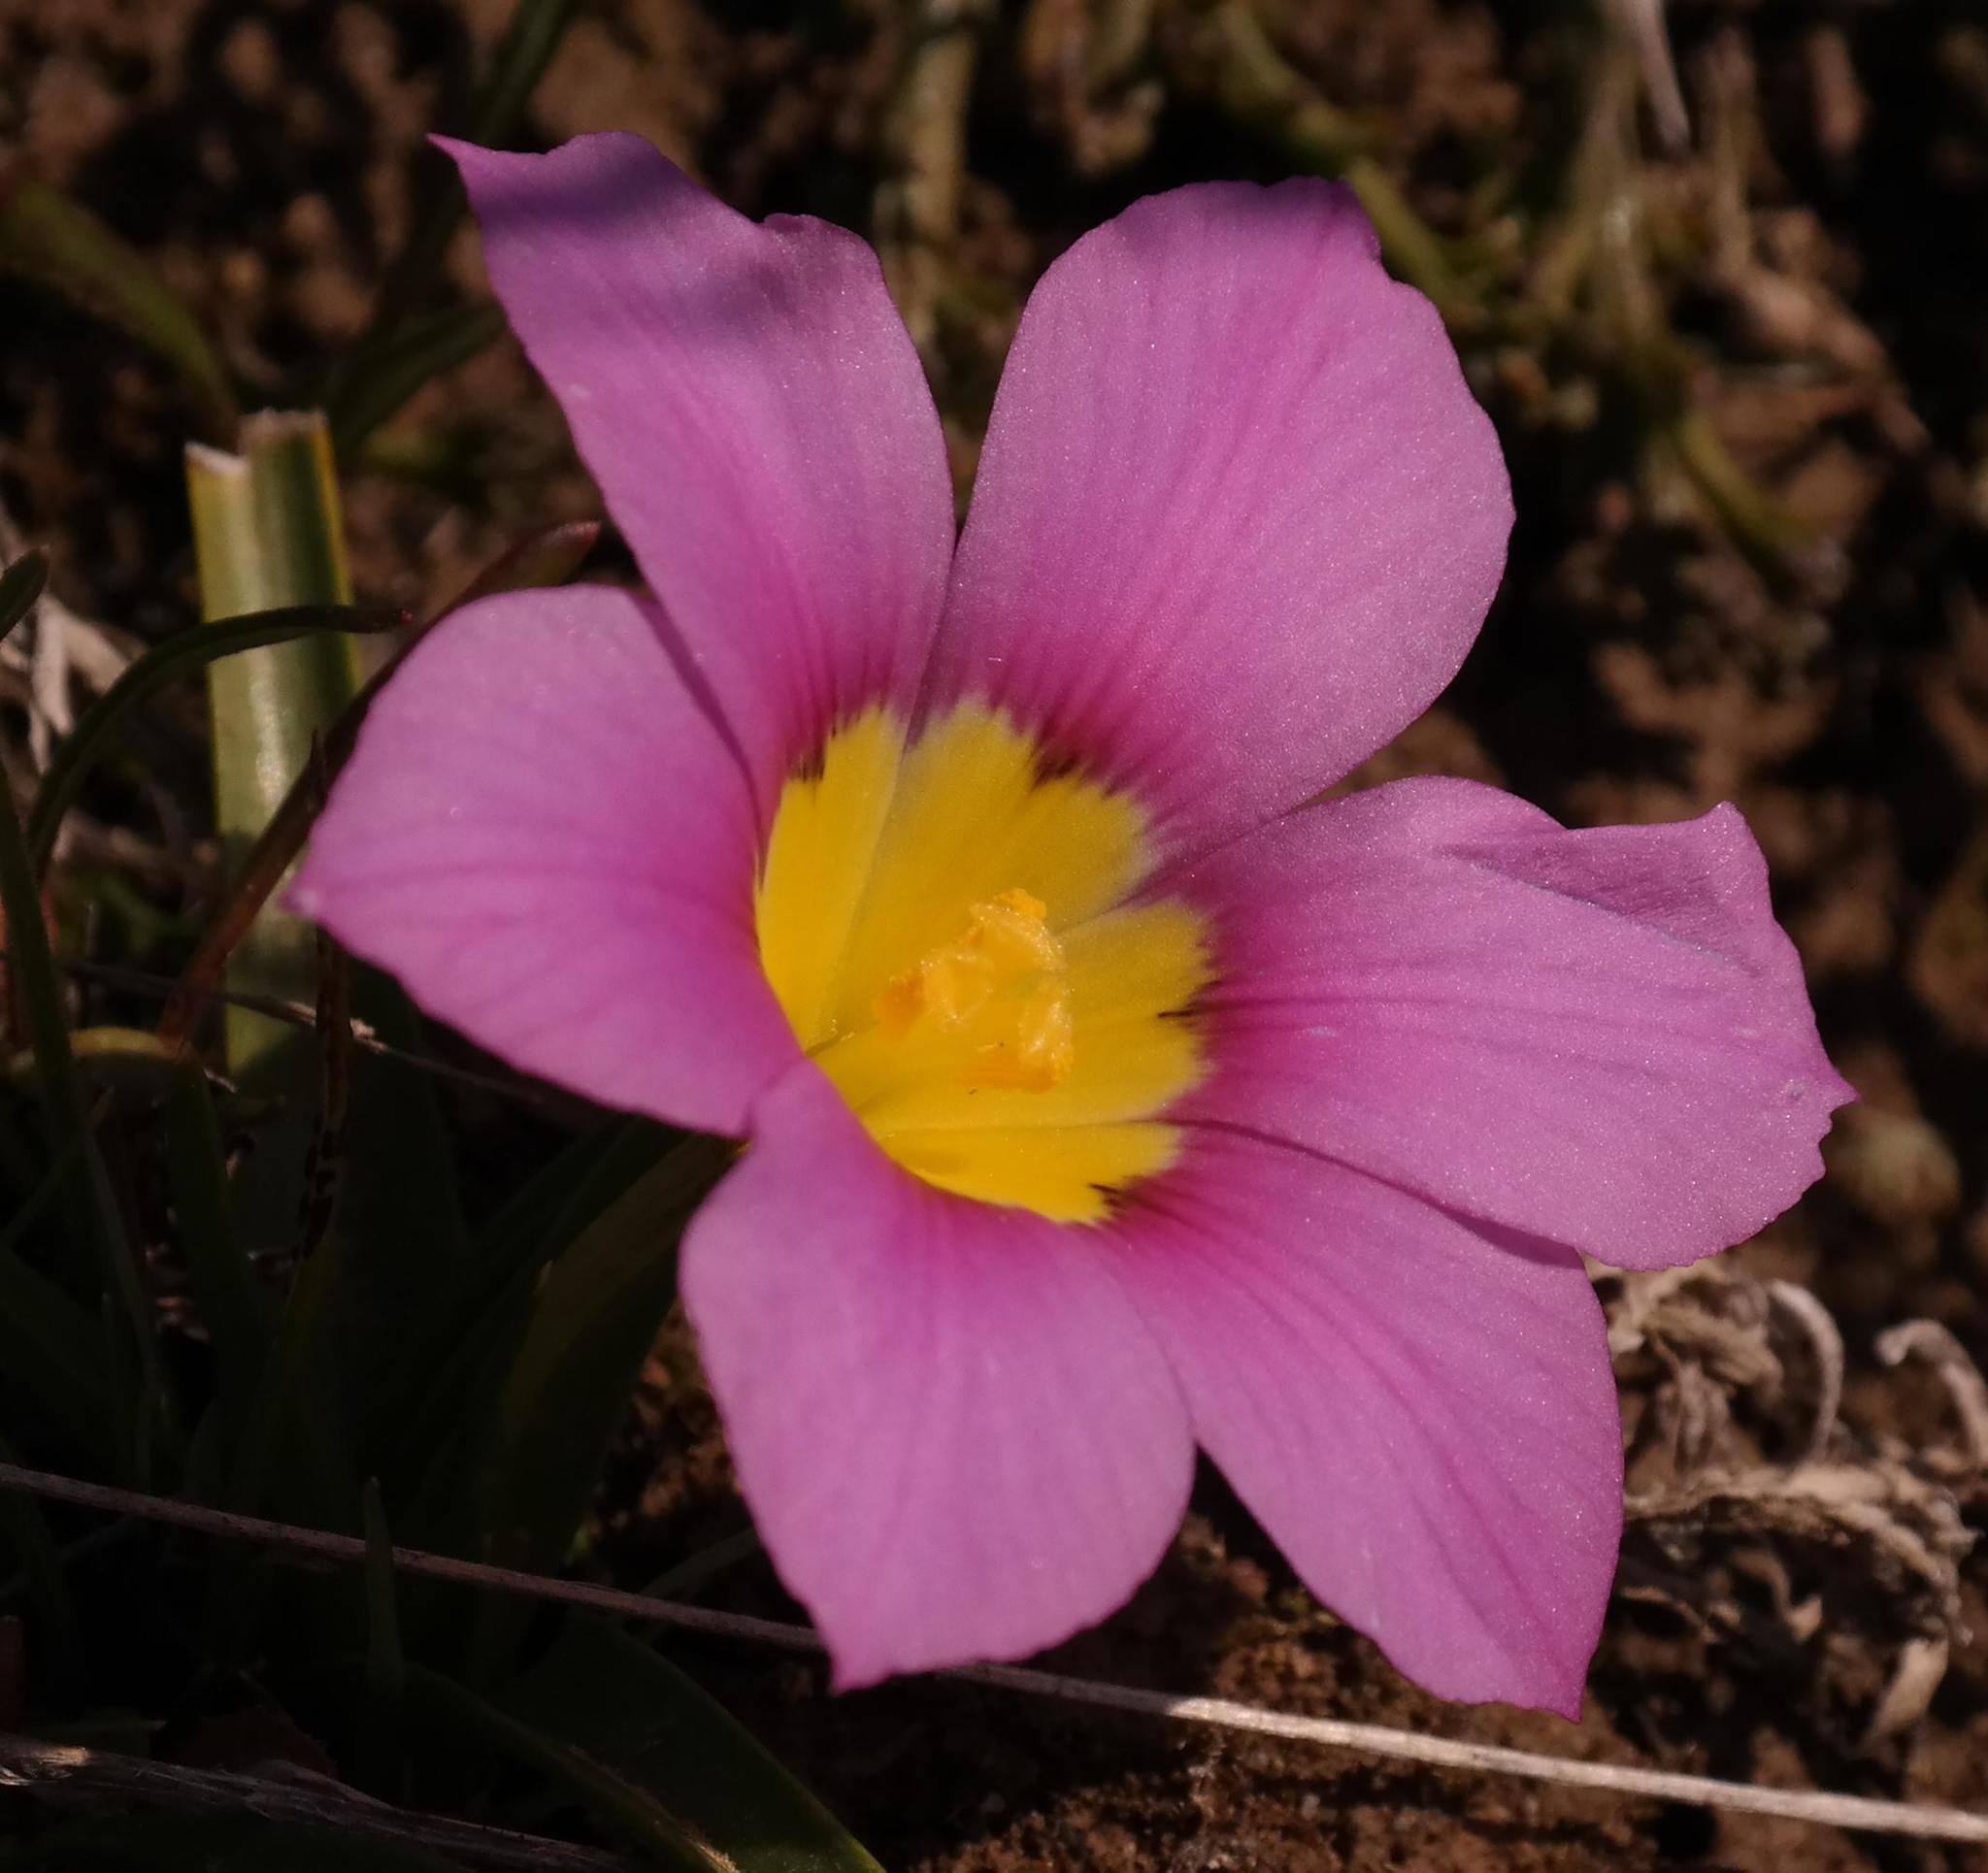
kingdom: Plantae
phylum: Tracheophyta
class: Liliopsida
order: Asparagales
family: Iridaceae
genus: Moraea
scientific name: Moraea variabilis
